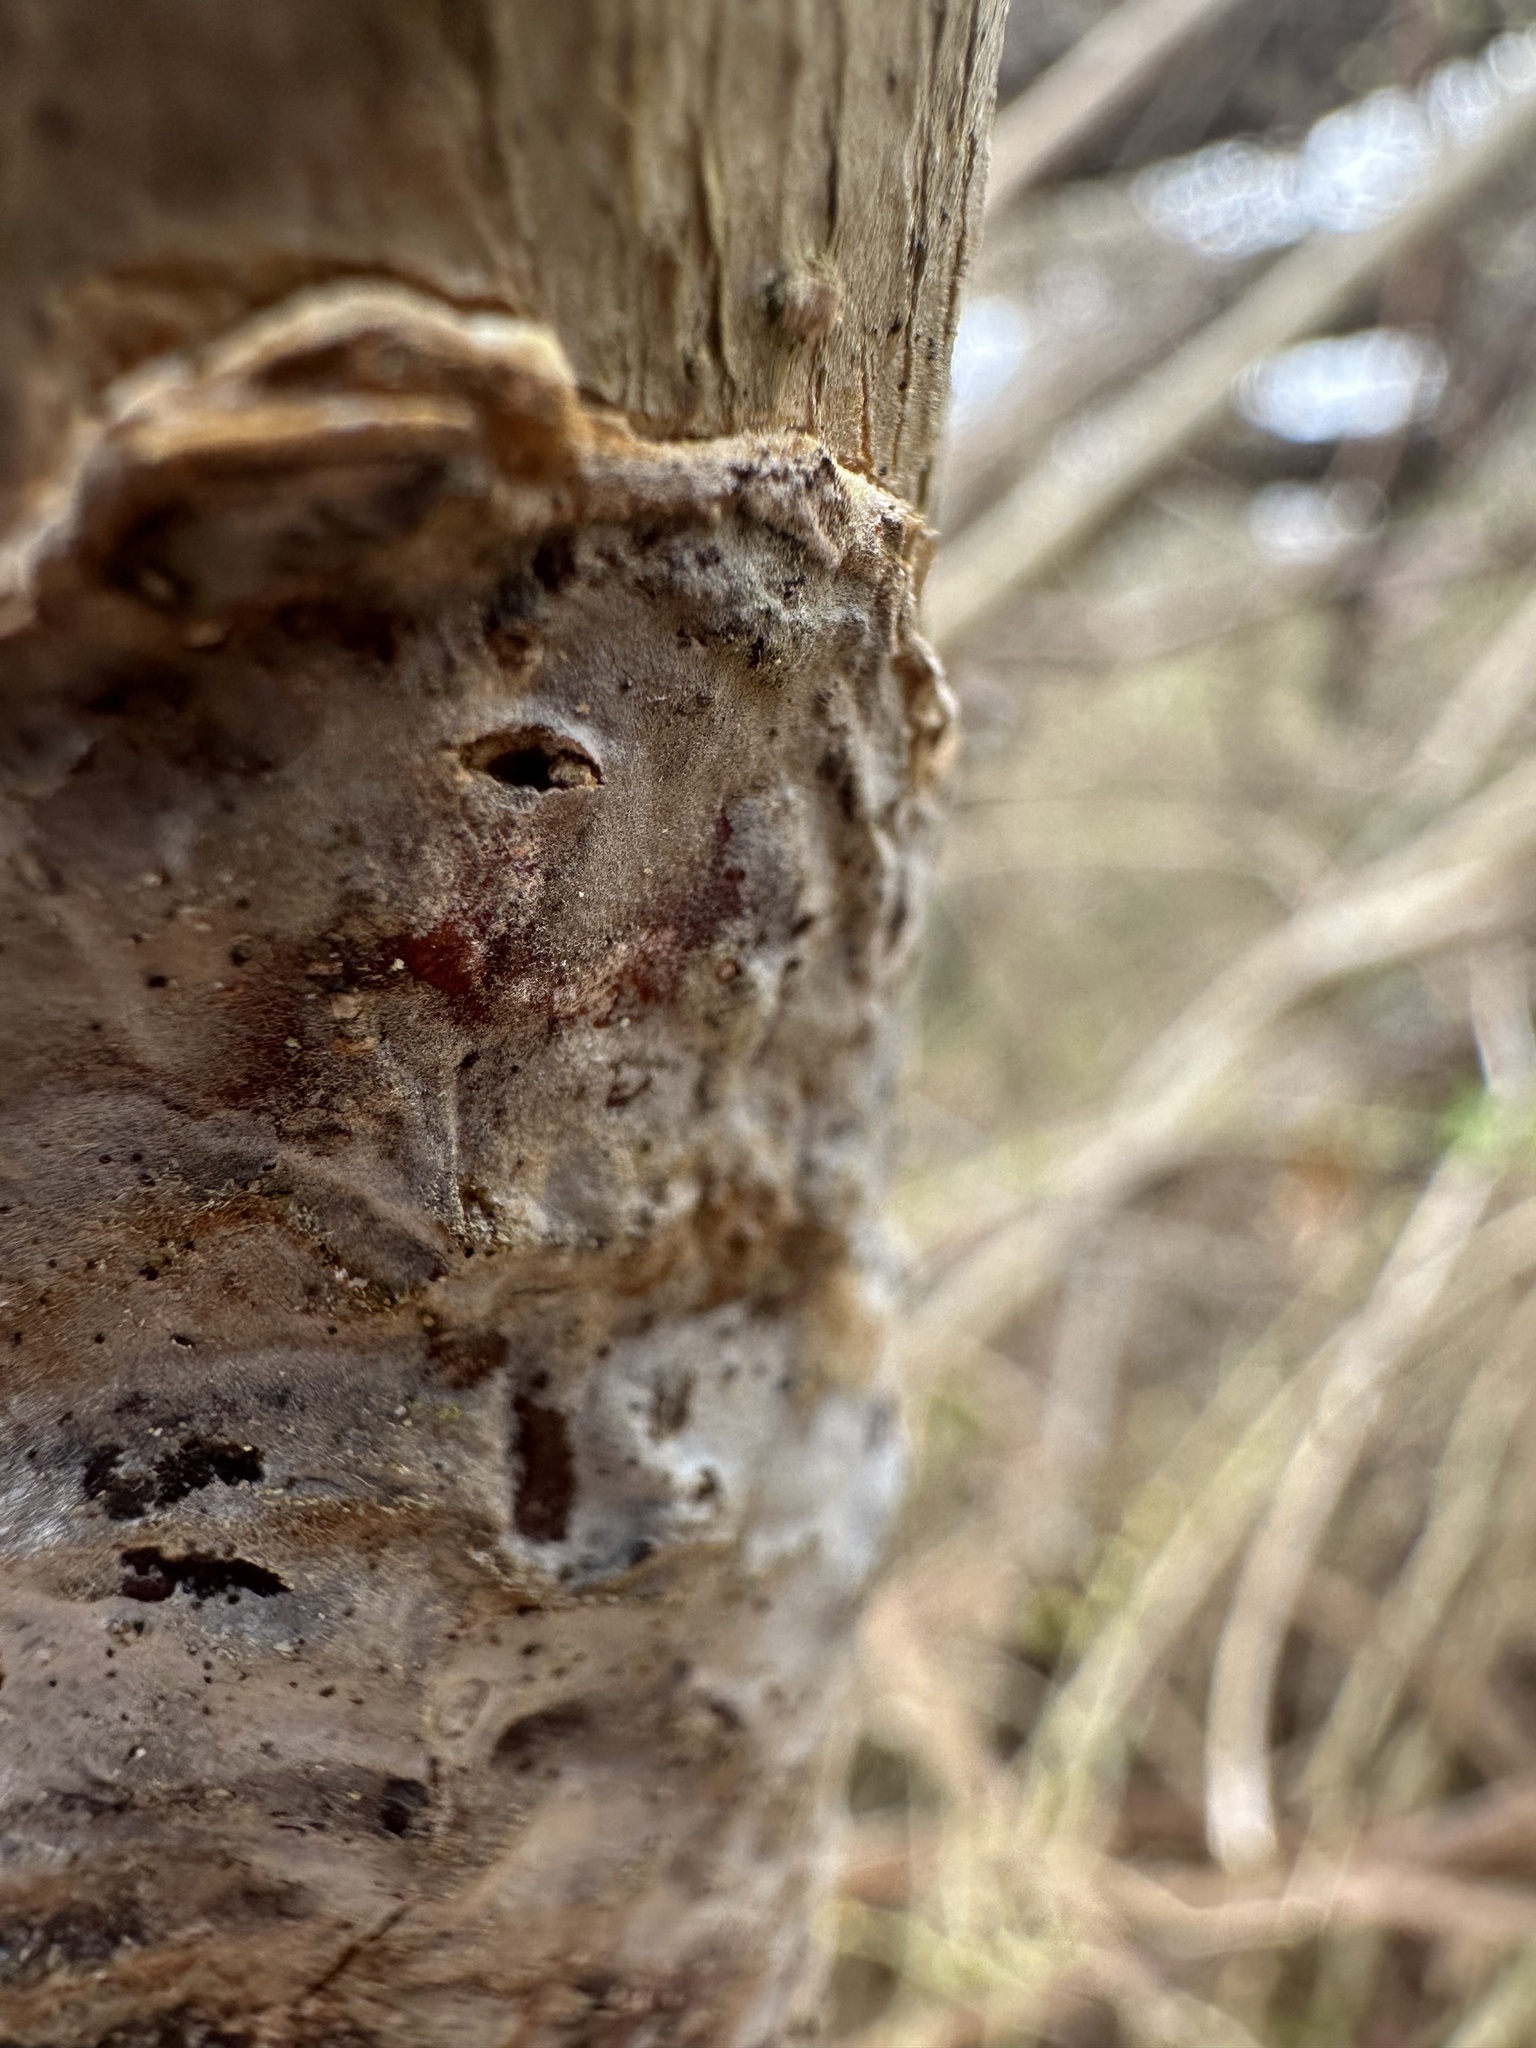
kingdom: Fungi
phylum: Basidiomycota
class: Agaricomycetes
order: Hymenochaetales
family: Hymenochaetaceae
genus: Hydnoporia
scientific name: Hydnoporia diffissa
